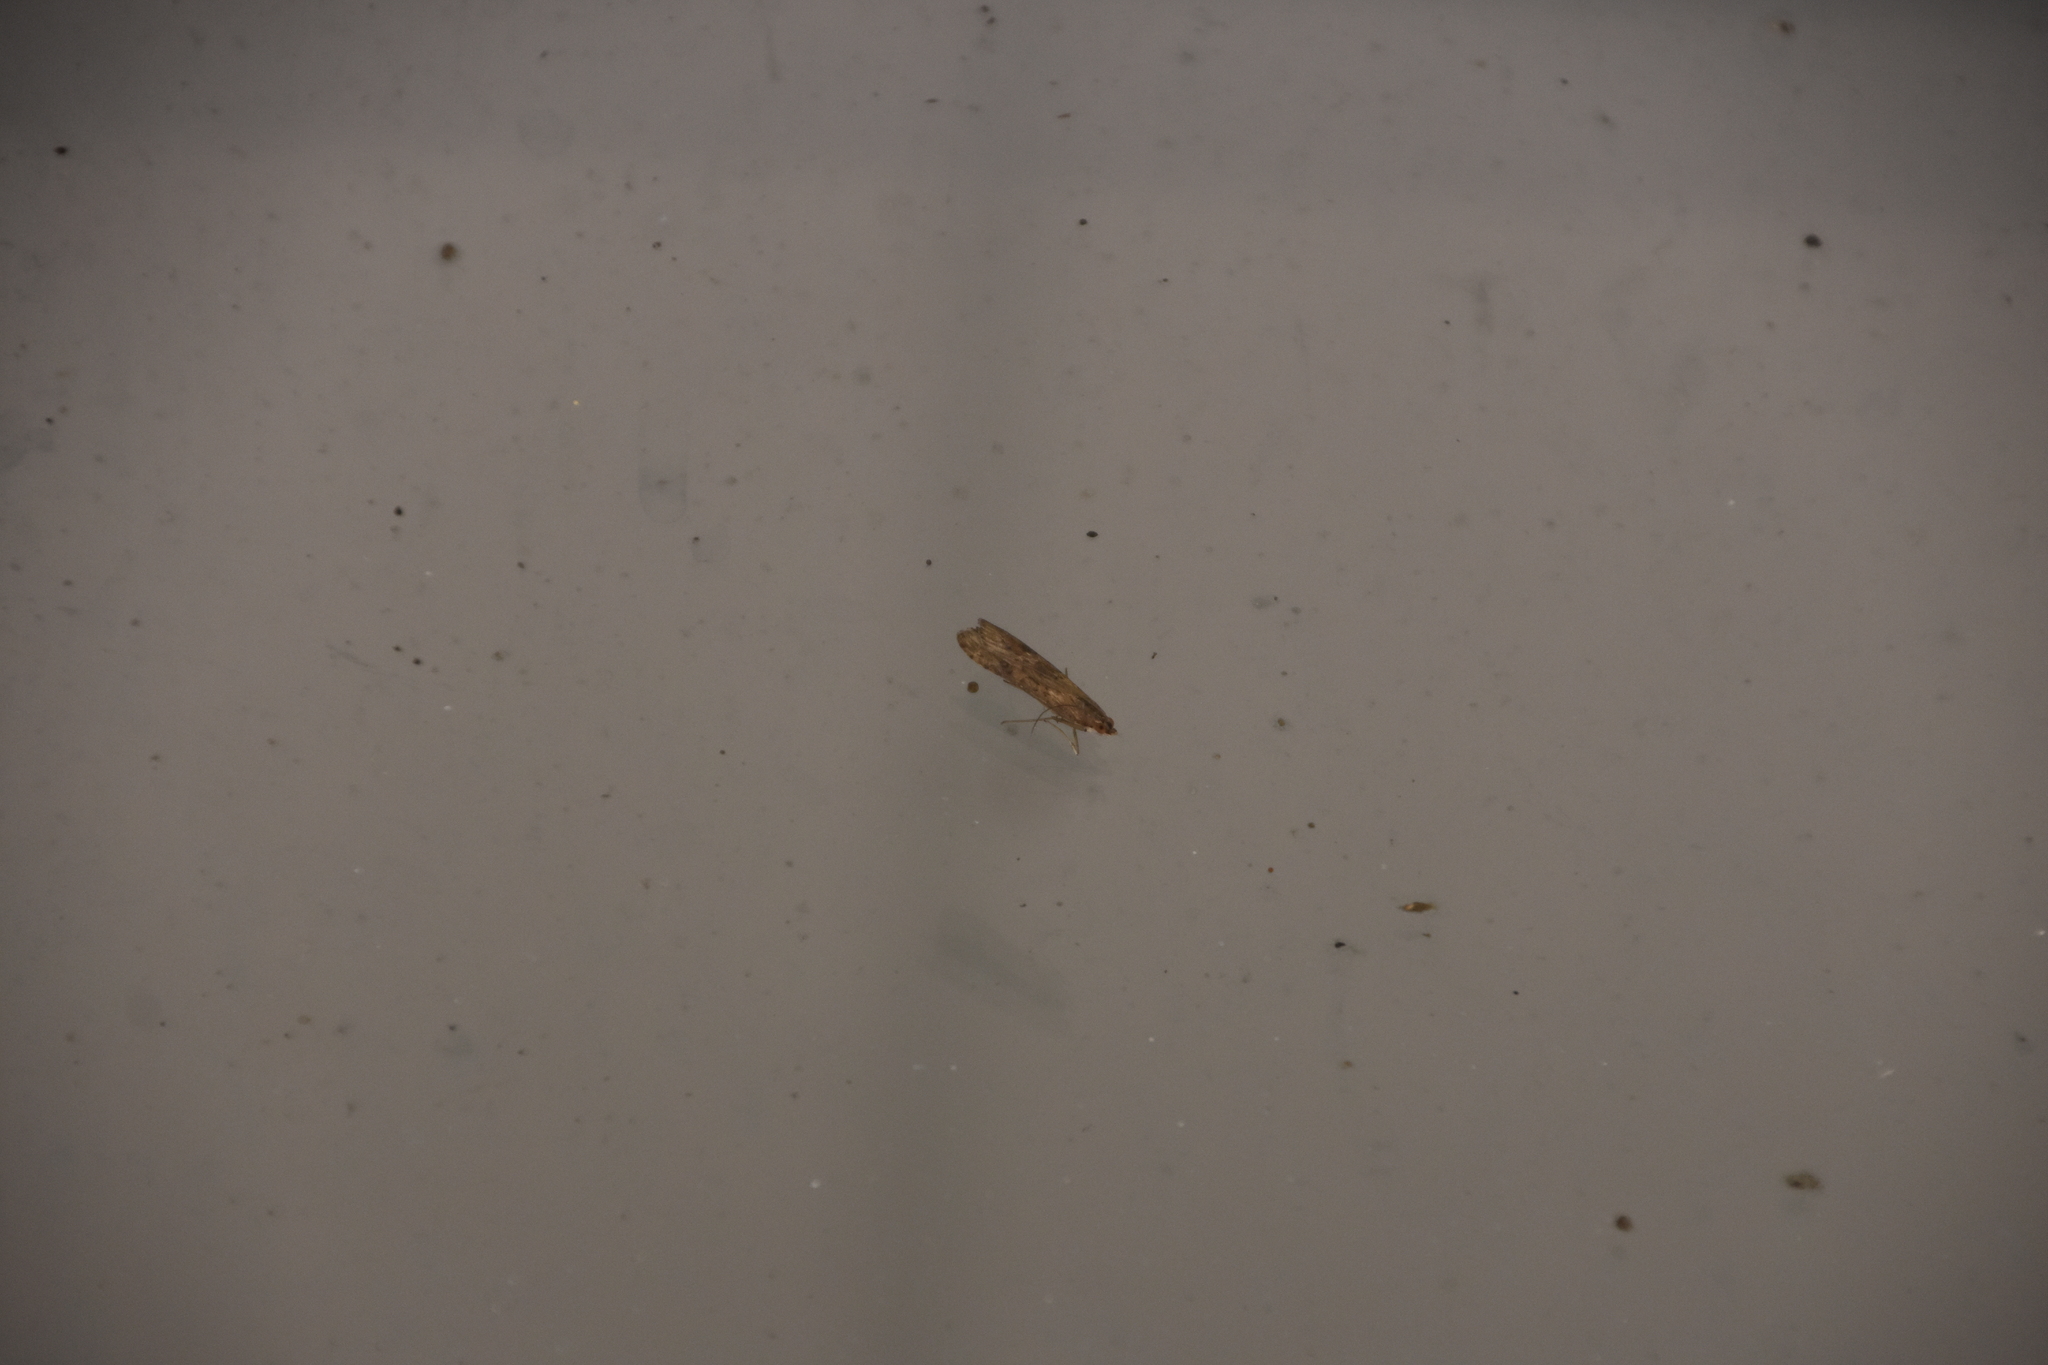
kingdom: Animalia
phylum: Arthropoda
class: Insecta
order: Lepidoptera
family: Crambidae
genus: Nomophila
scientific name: Nomophila nearctica
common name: American rush veneer
